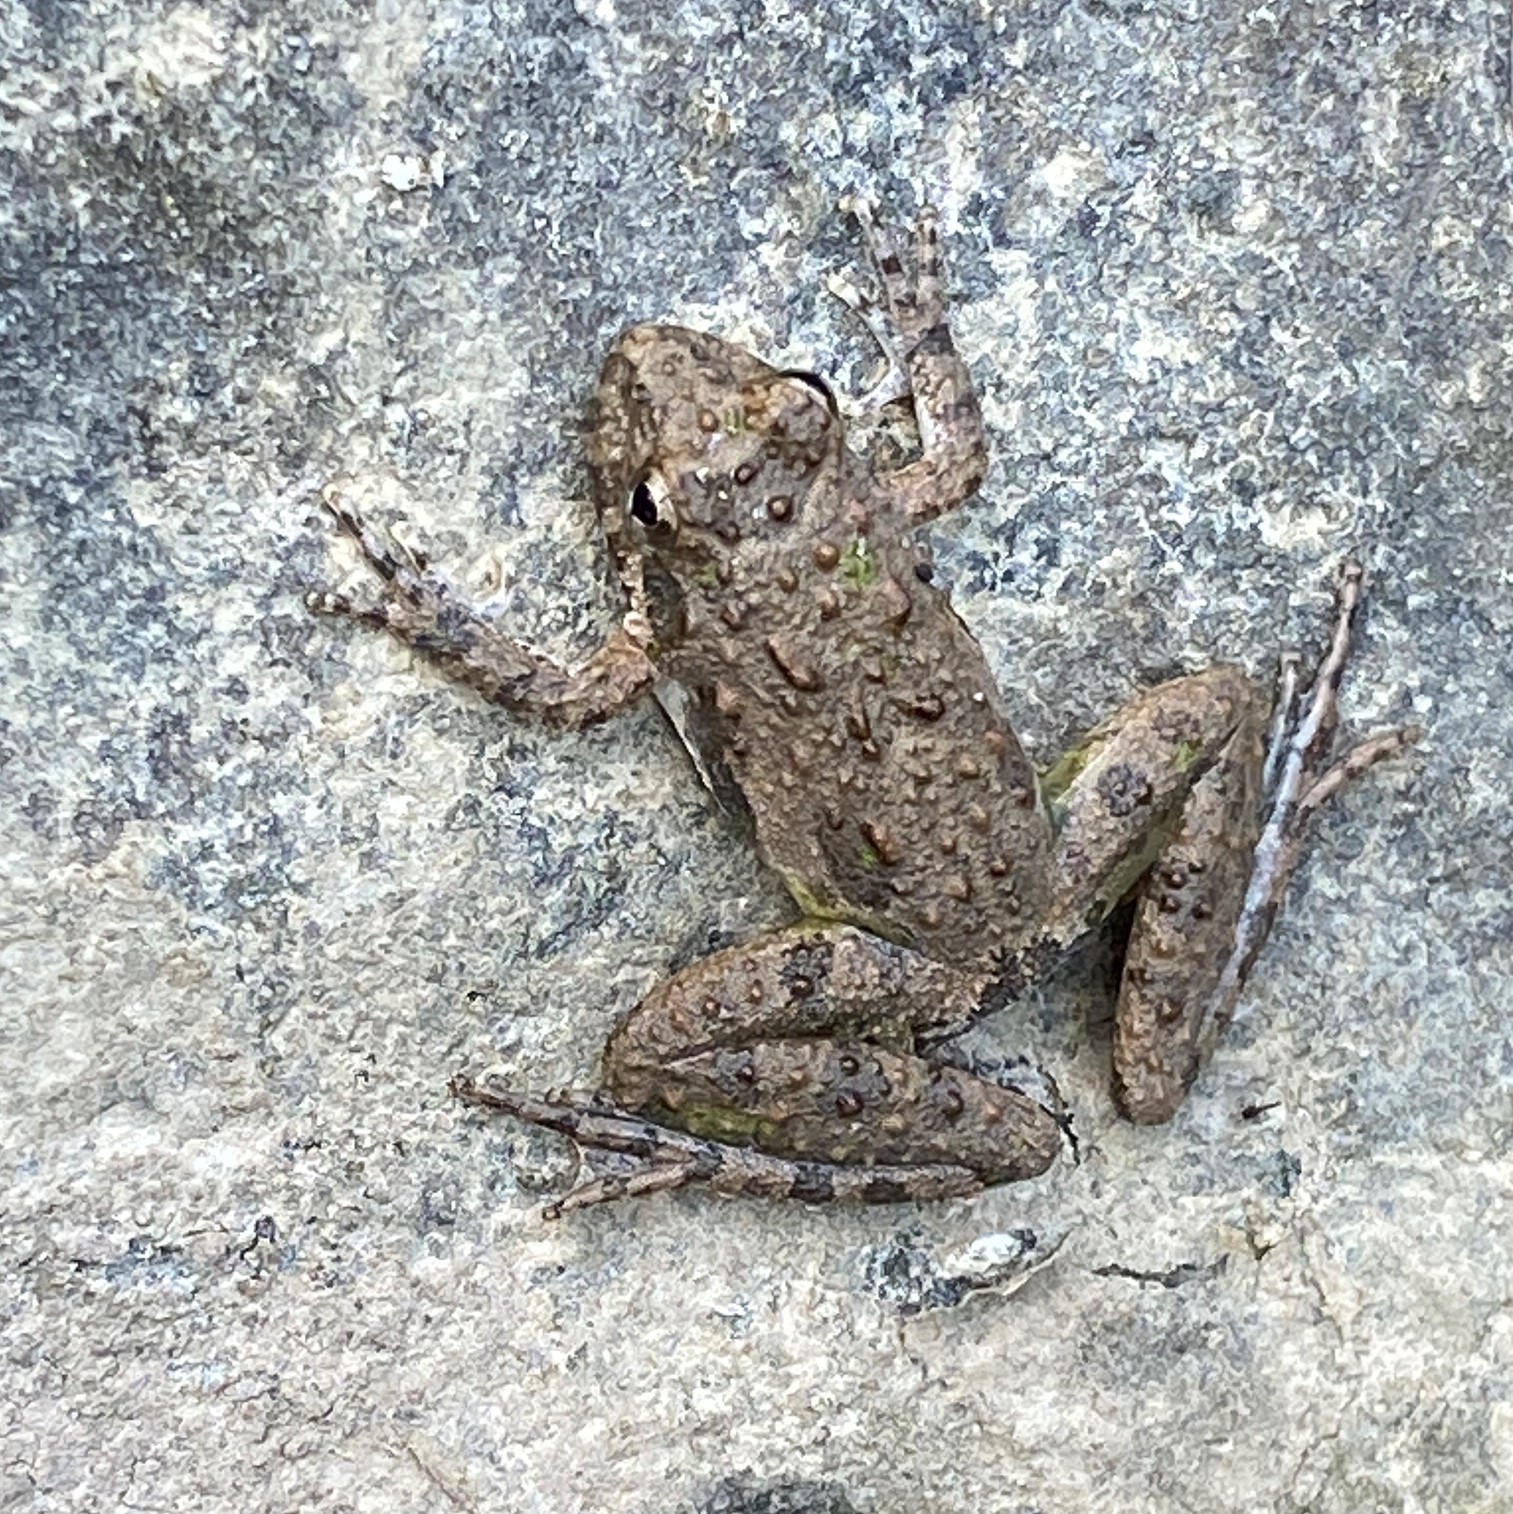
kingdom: Animalia
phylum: Chordata
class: Amphibia
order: Anura
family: Hylidae
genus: Acris
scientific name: Acris blanchardi
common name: Blanchard's cricket frog
